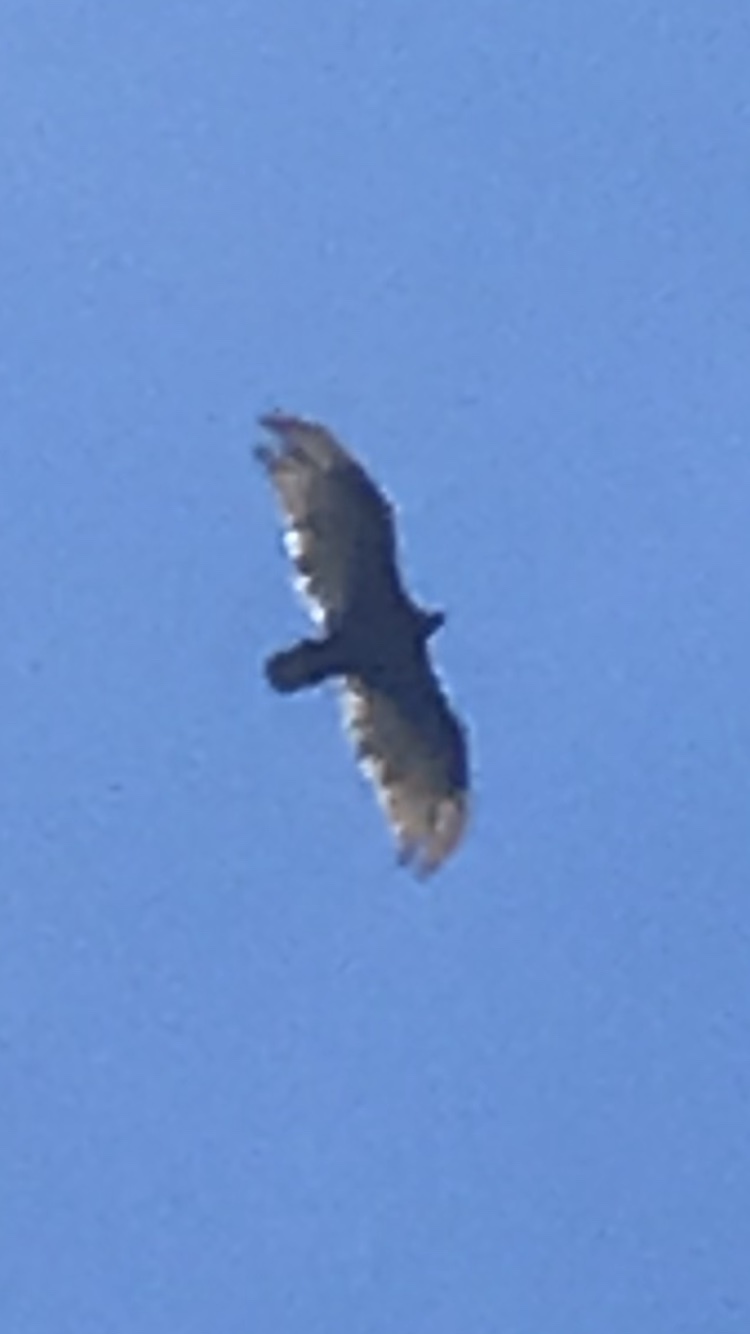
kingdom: Animalia
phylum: Chordata
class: Aves
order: Accipitriformes
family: Cathartidae
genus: Cathartes
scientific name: Cathartes aura
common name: Turkey vulture
